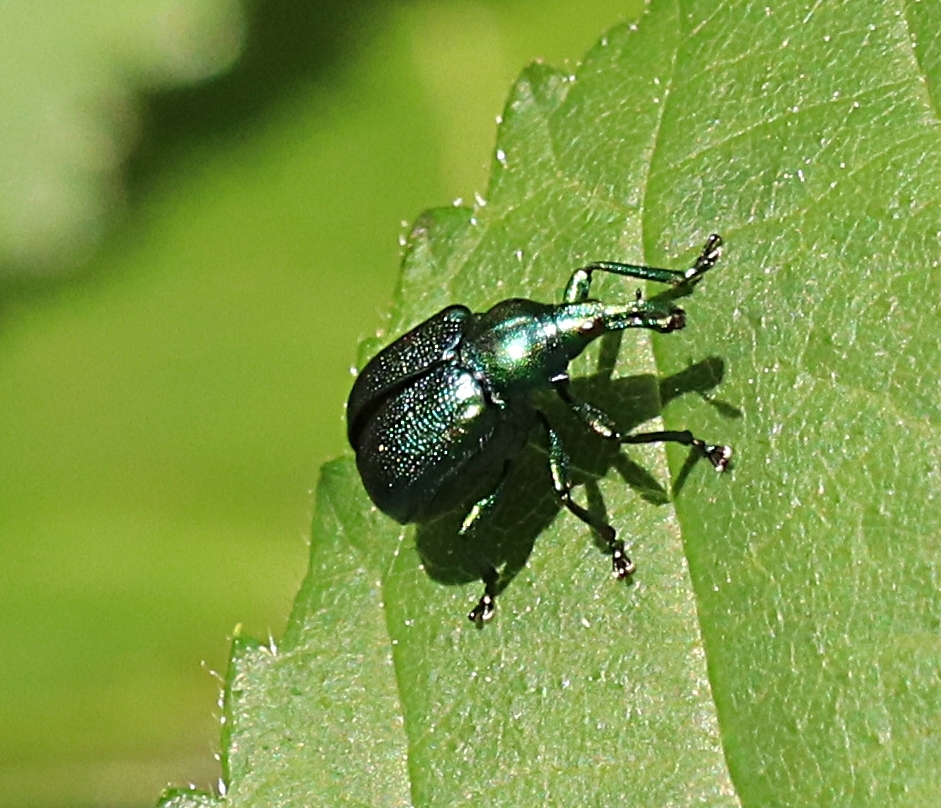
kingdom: Animalia
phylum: Arthropoda
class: Insecta
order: Coleoptera
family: Attelabidae
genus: Byctiscus
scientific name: Byctiscus betulae
